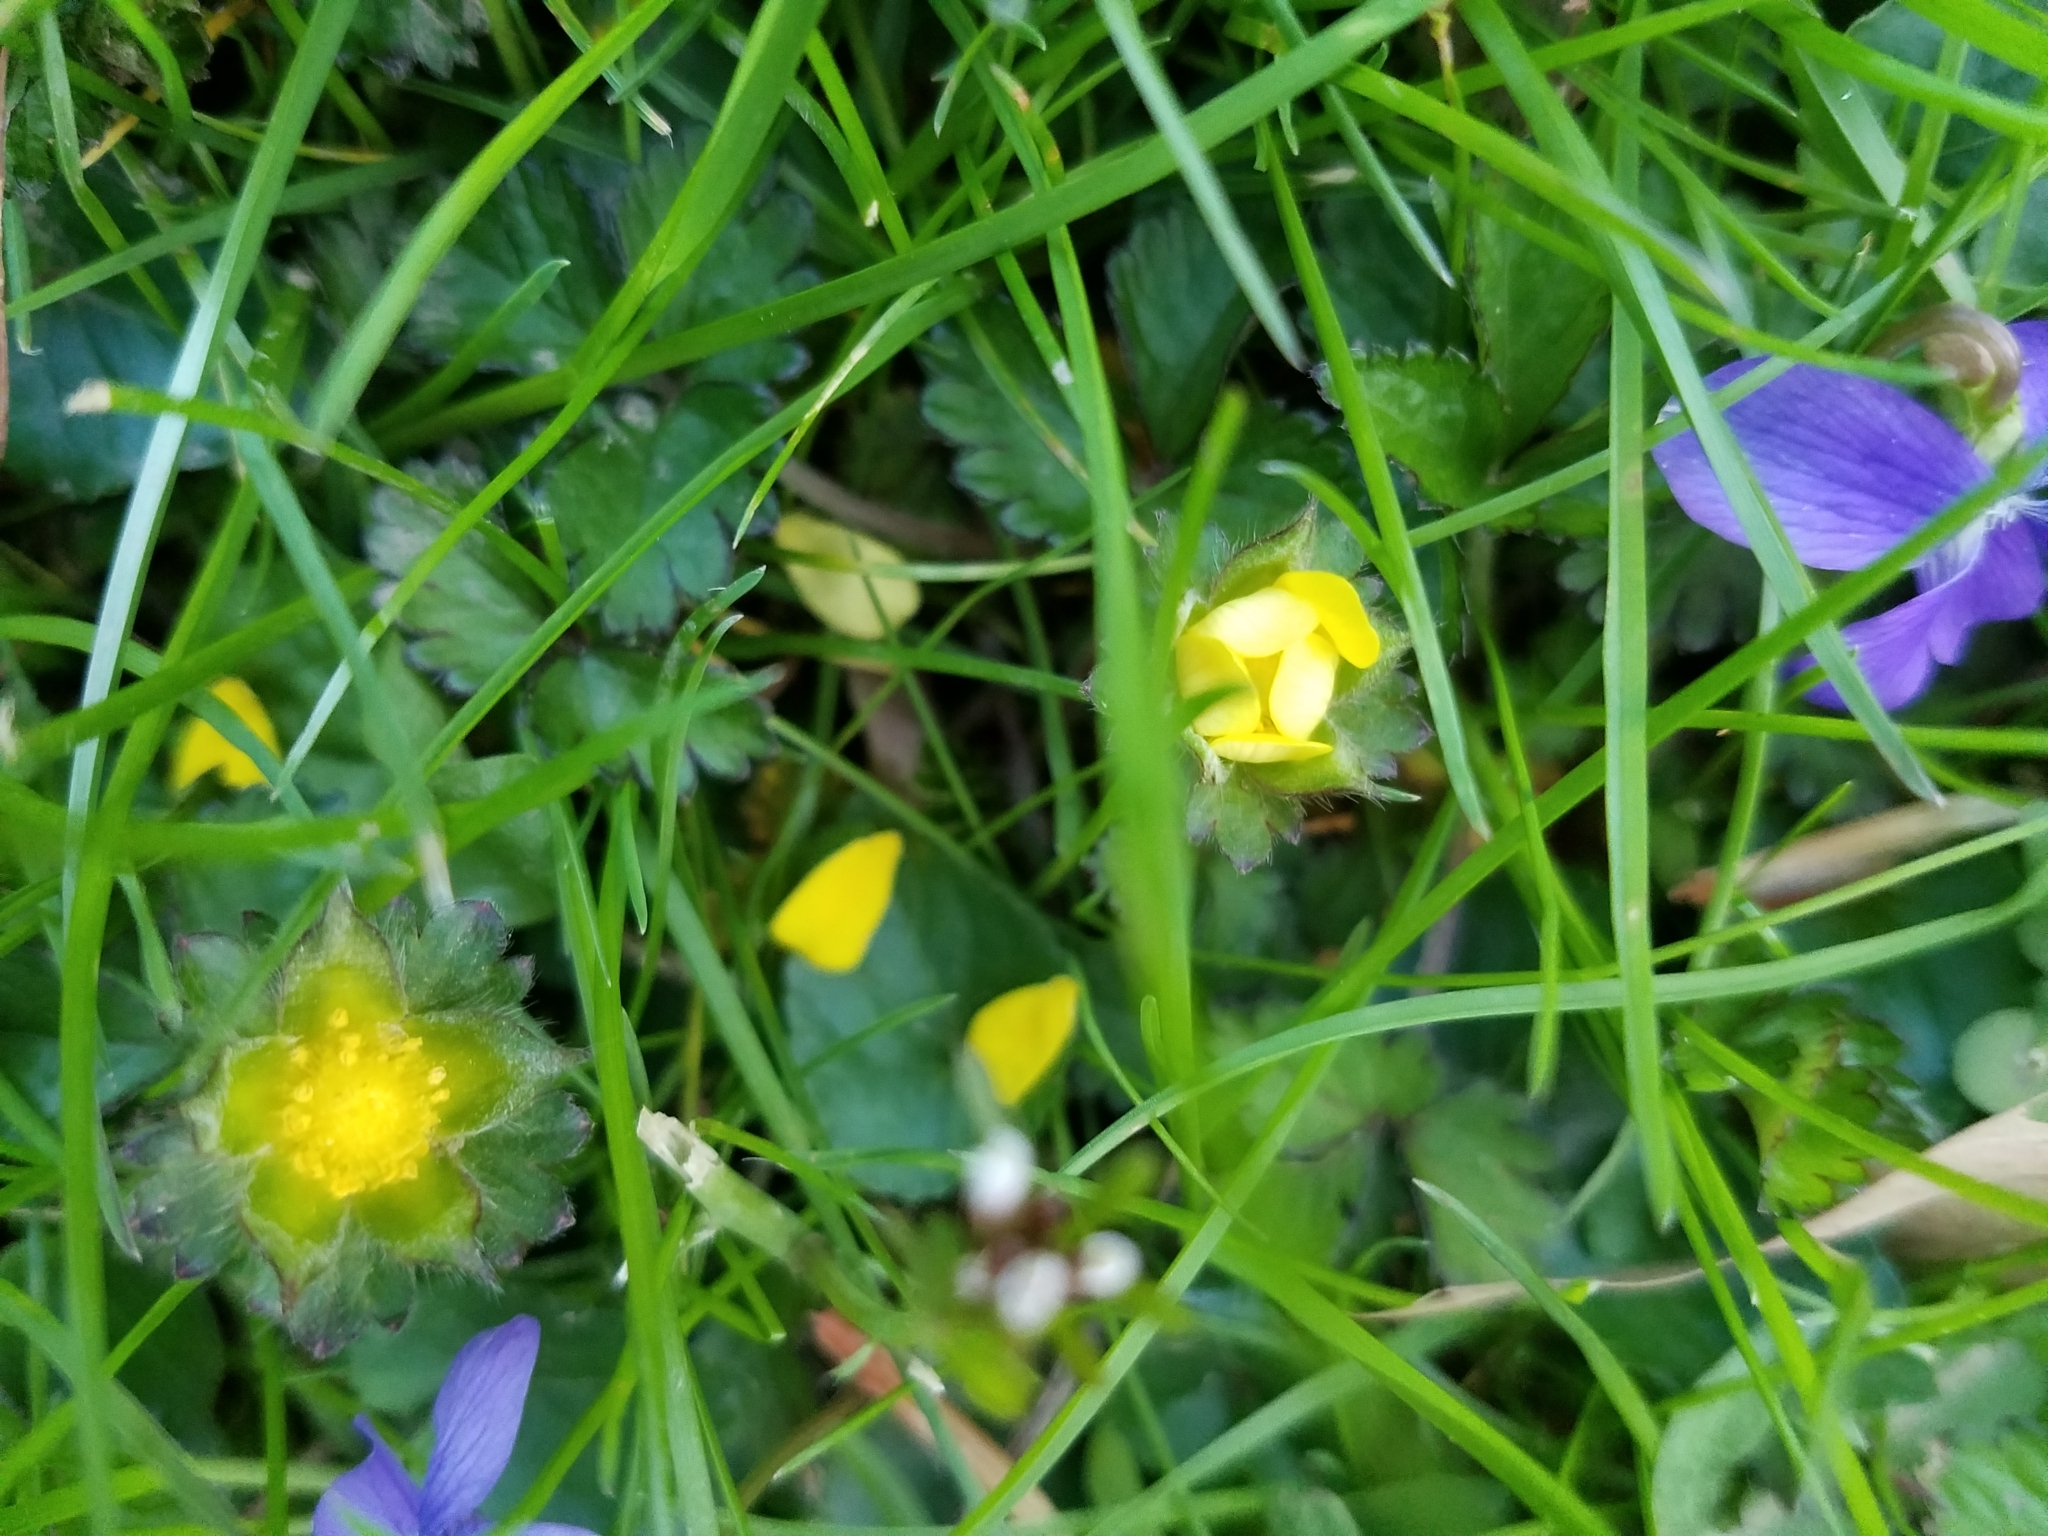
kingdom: Plantae
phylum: Tracheophyta
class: Magnoliopsida
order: Rosales
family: Rosaceae
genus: Potentilla
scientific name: Potentilla indica
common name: Yellow-flowered strawberry
